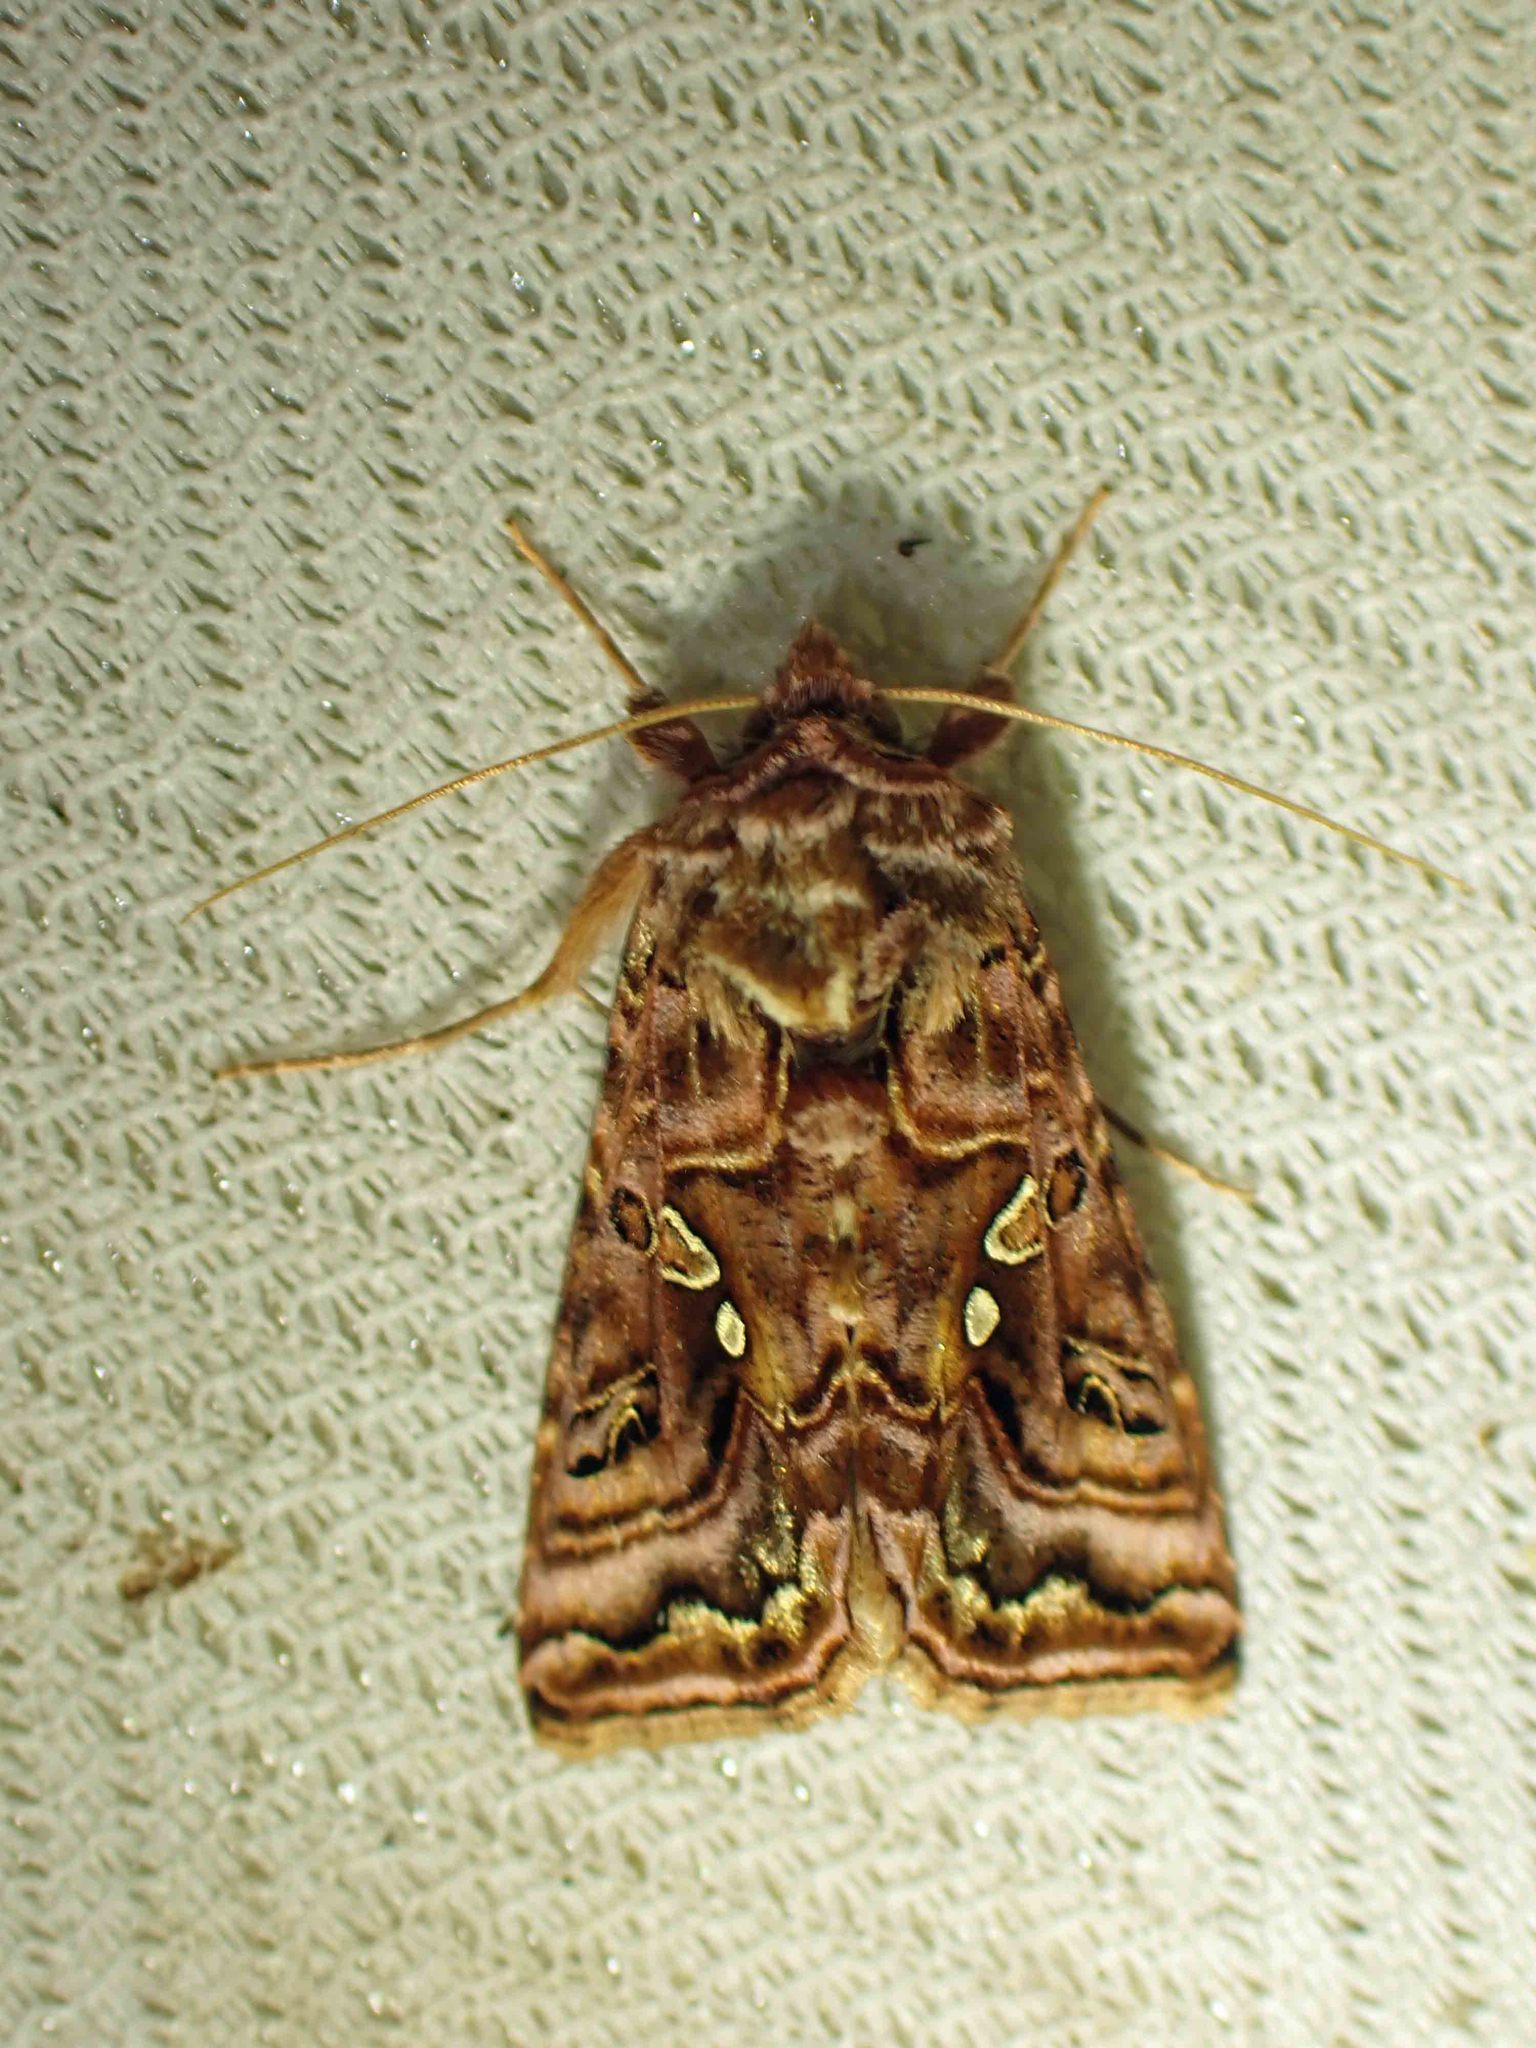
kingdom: Animalia
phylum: Arthropoda
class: Insecta
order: Lepidoptera
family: Noctuidae
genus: Autographa
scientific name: Autographa mappa
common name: Wavy chestnut y moth
